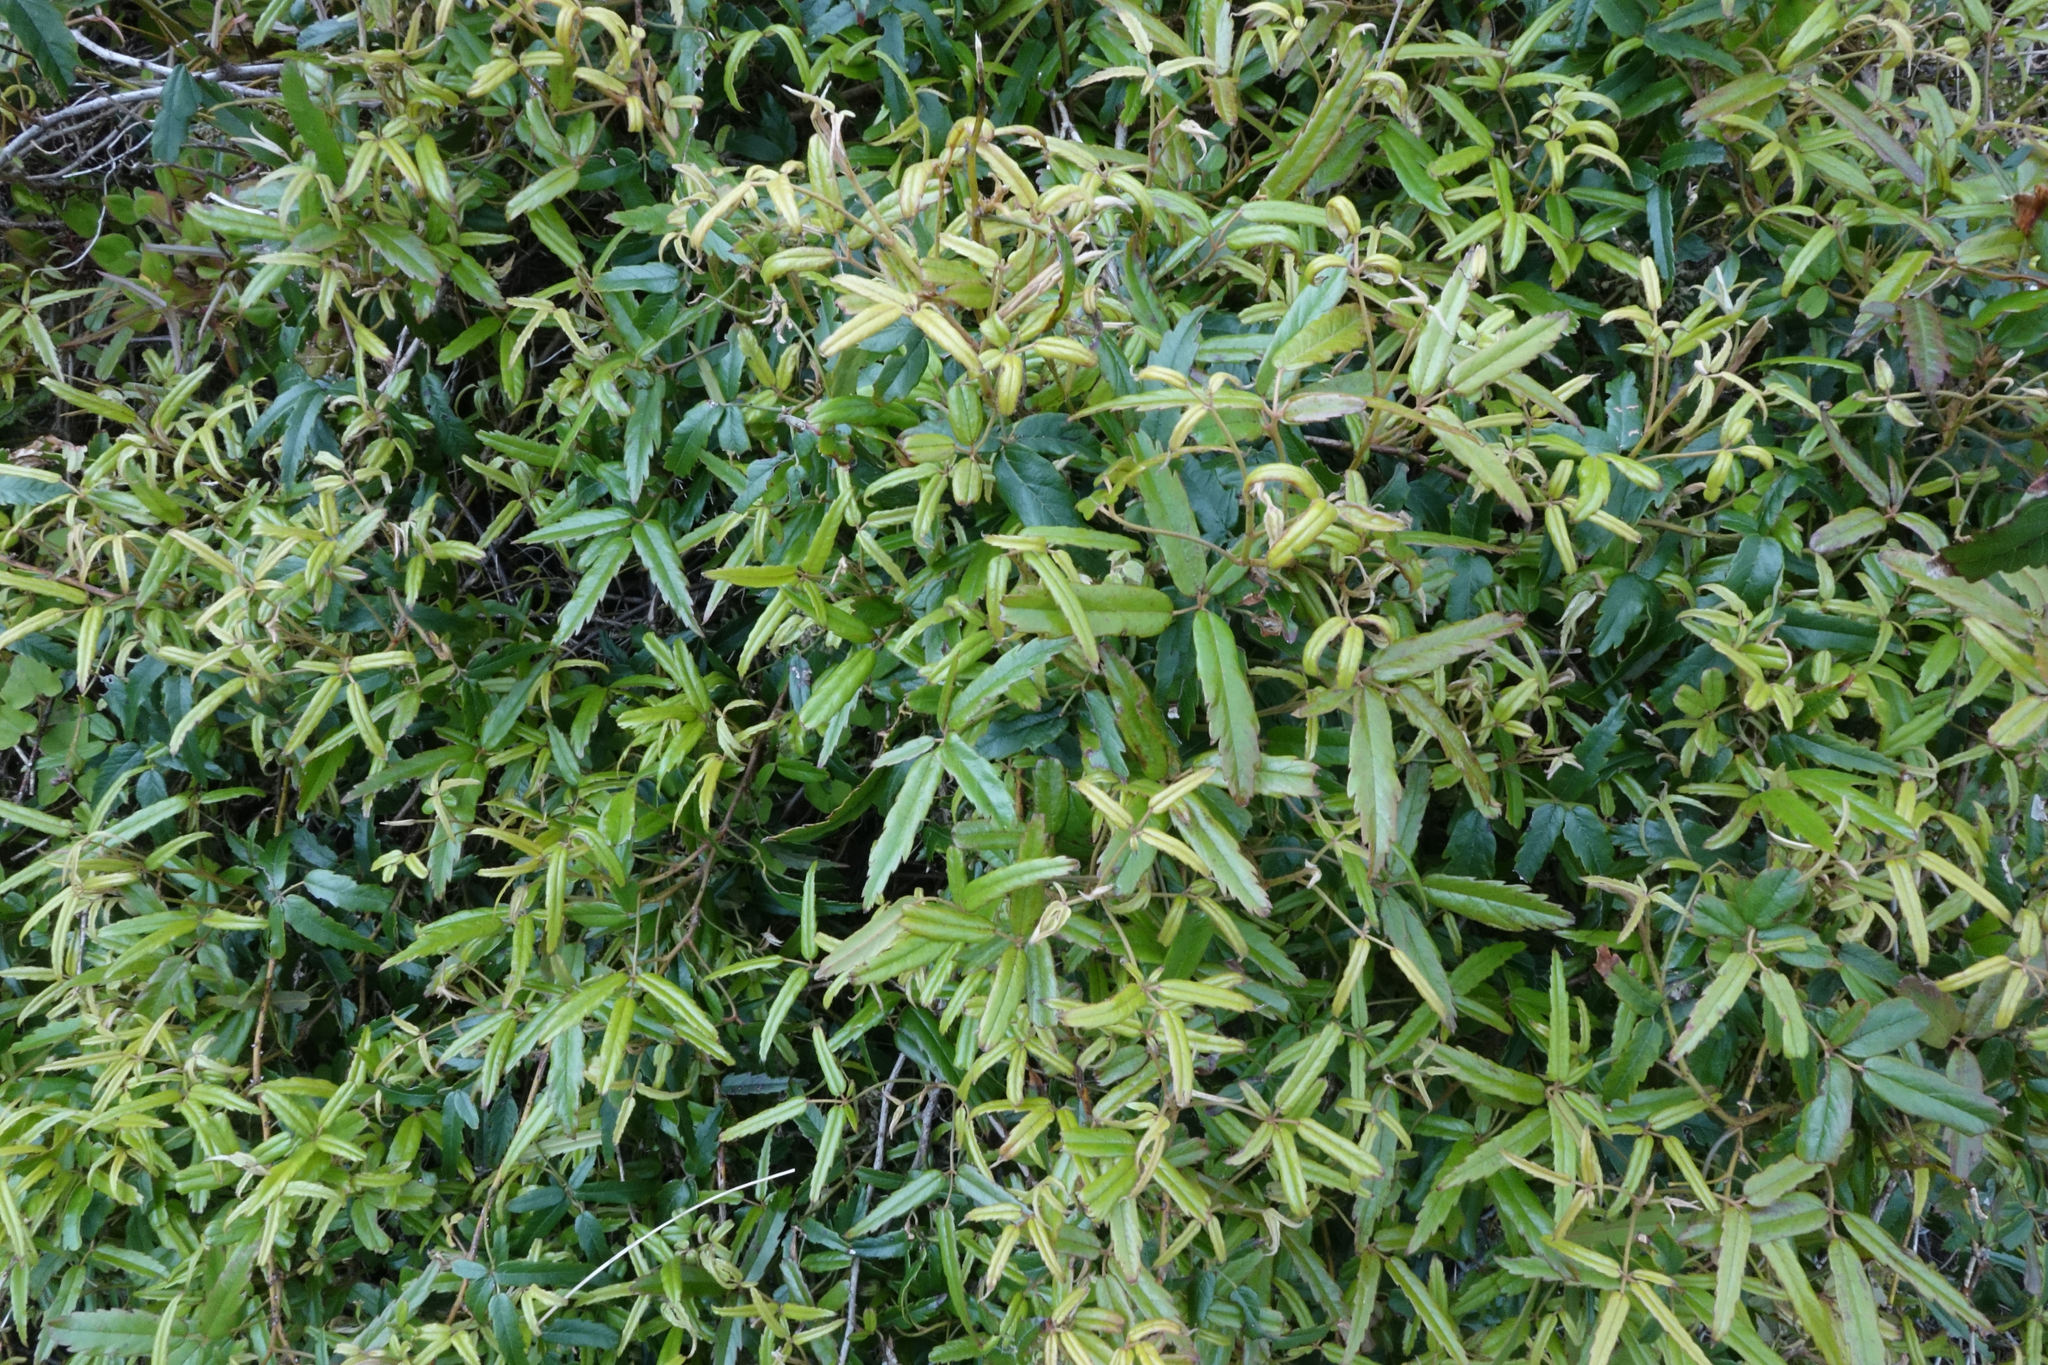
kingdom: Plantae
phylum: Tracheophyta
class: Magnoliopsida
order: Rosales
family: Rosaceae
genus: Rubus
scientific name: Rubus schmidelioides
